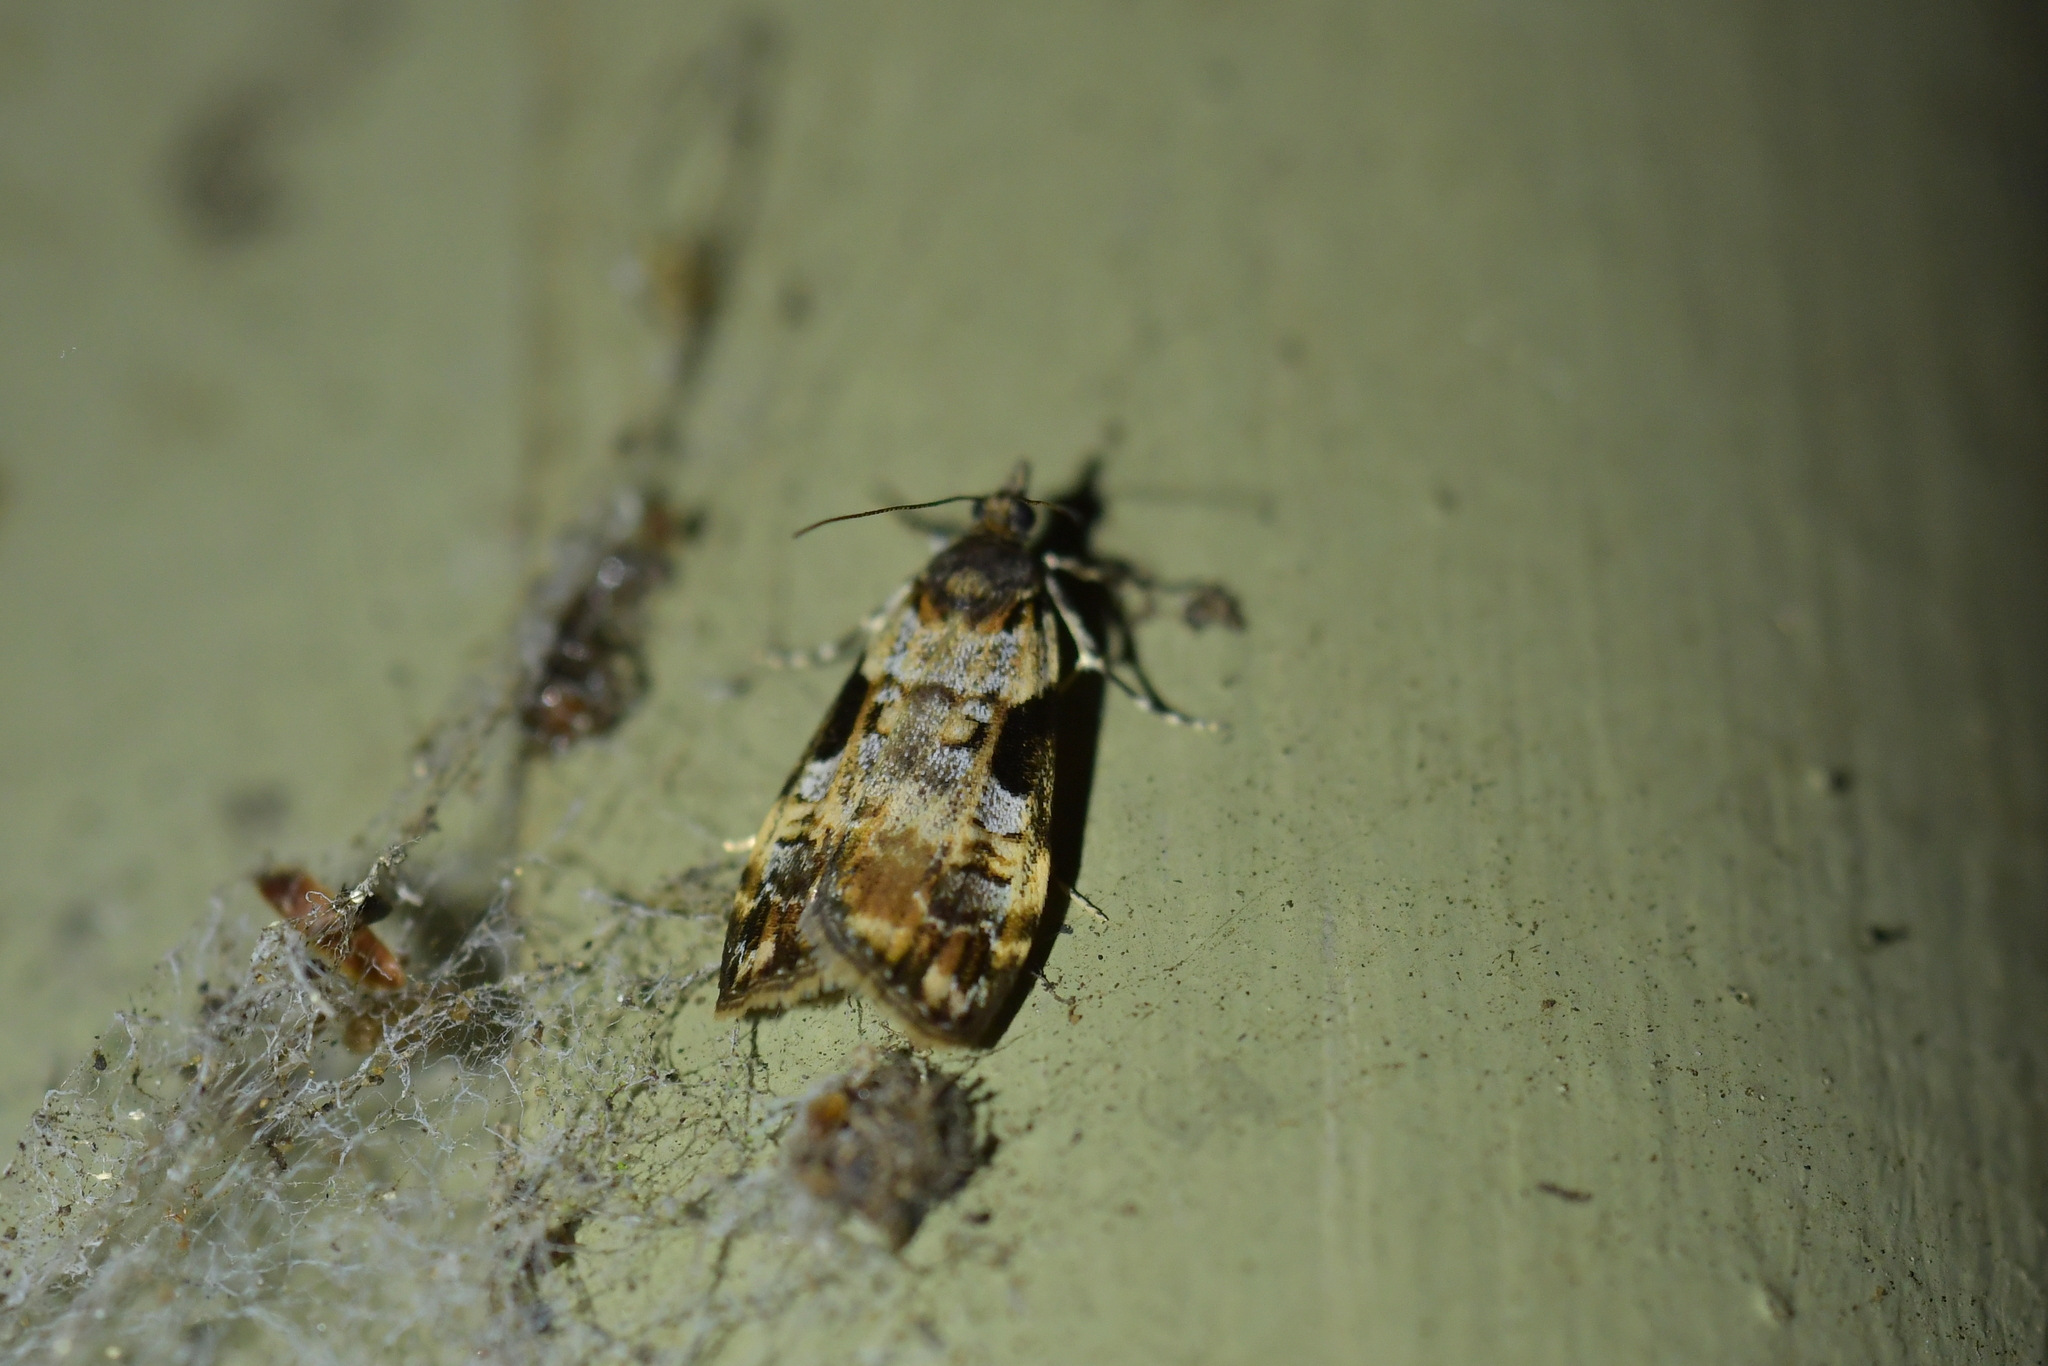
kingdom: Animalia
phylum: Arthropoda
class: Insecta
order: Lepidoptera
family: Crambidae
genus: Scoparia
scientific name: Scoparia acharis
